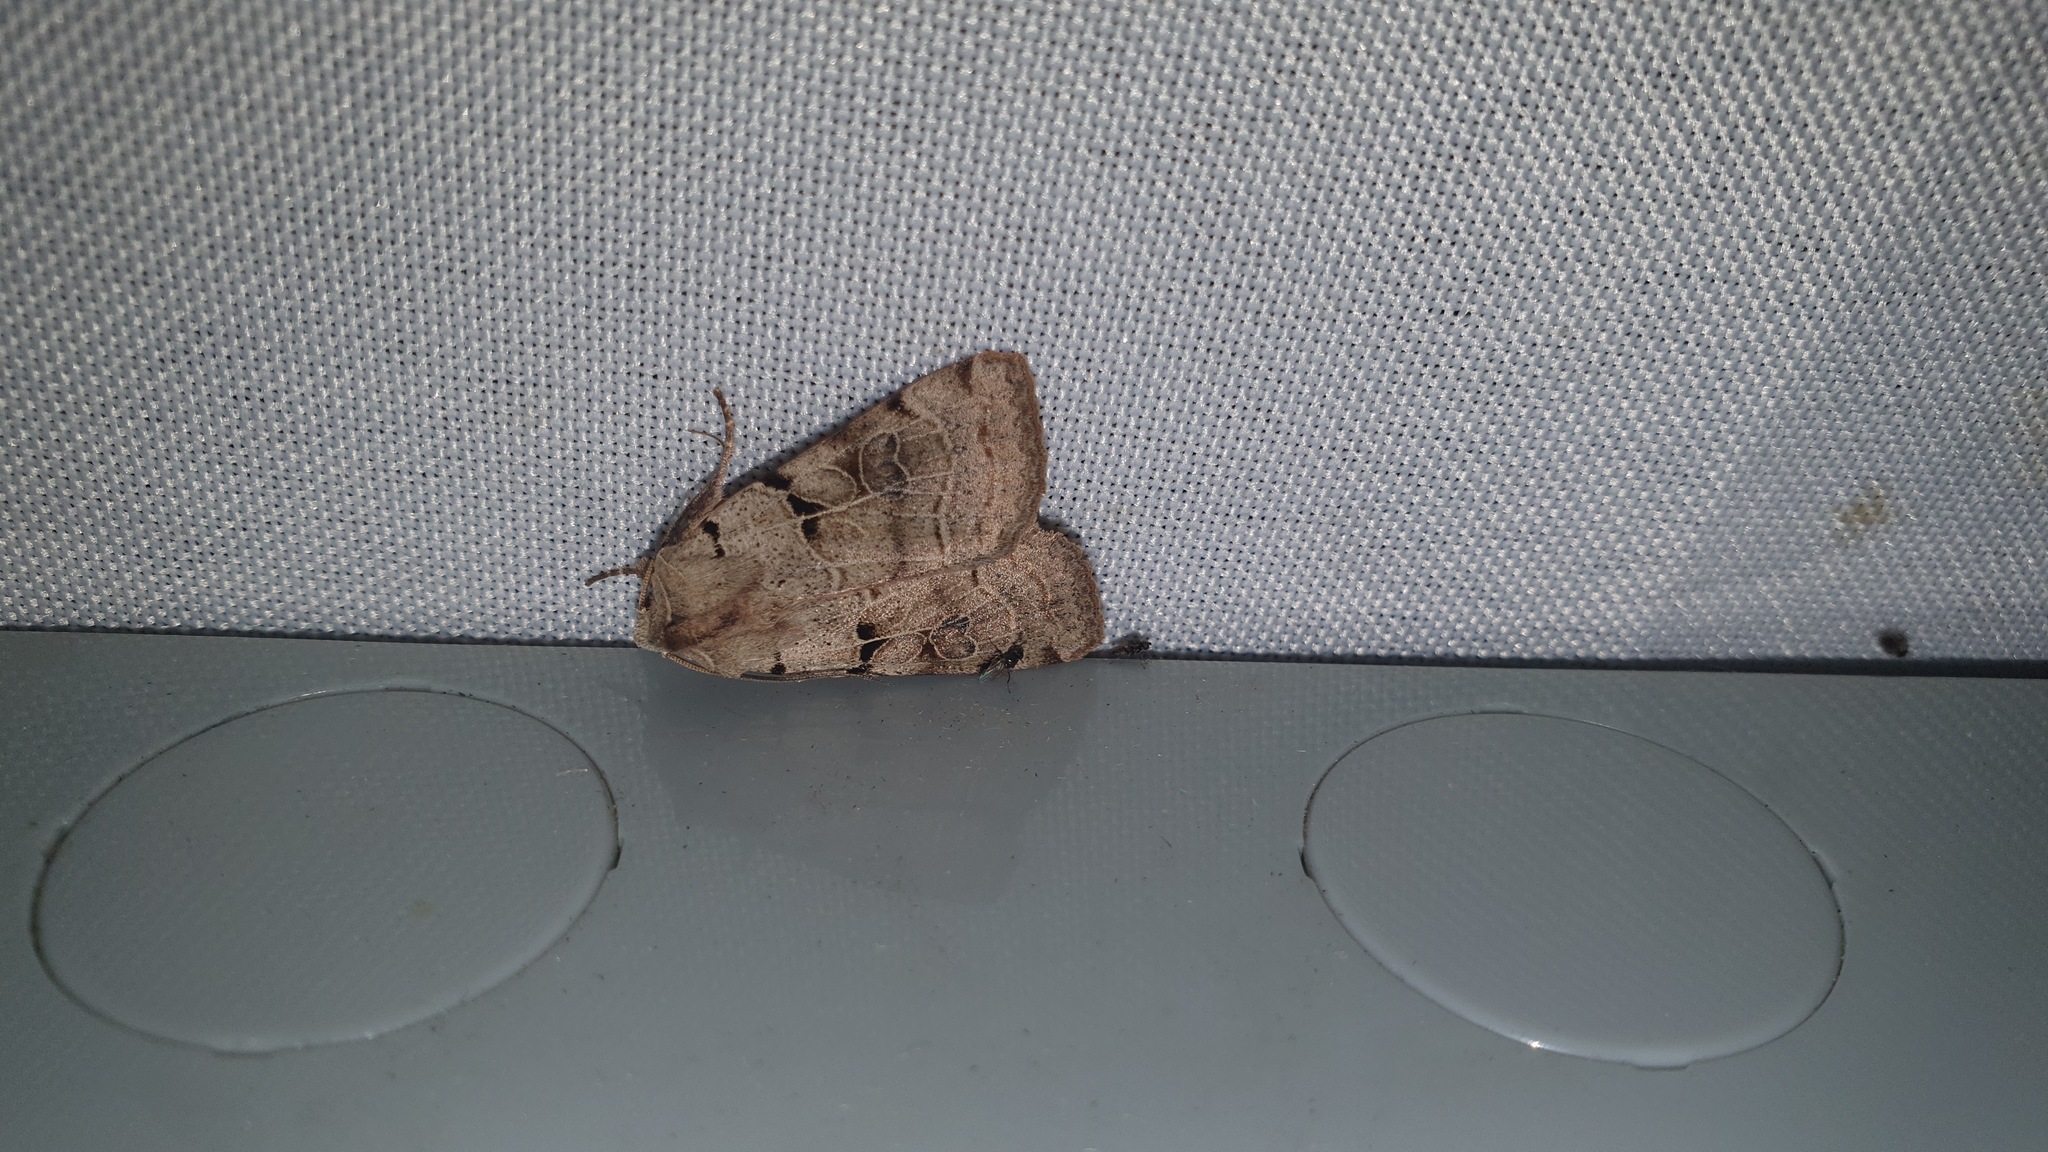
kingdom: Animalia
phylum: Arthropoda
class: Insecta
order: Lepidoptera
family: Noctuidae
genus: Eugnorisma
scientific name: Eugnorisma depuncta
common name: Plain clay
